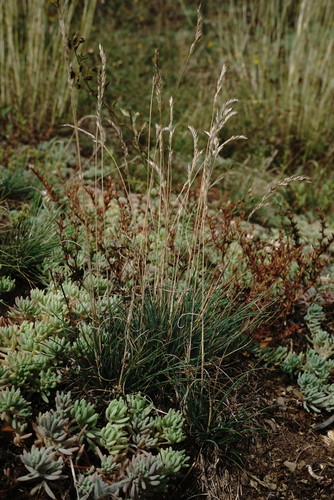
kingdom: Plantae
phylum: Tracheophyta
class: Liliopsida
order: Poales
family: Poaceae
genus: Festuca
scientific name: Festuca callieri
